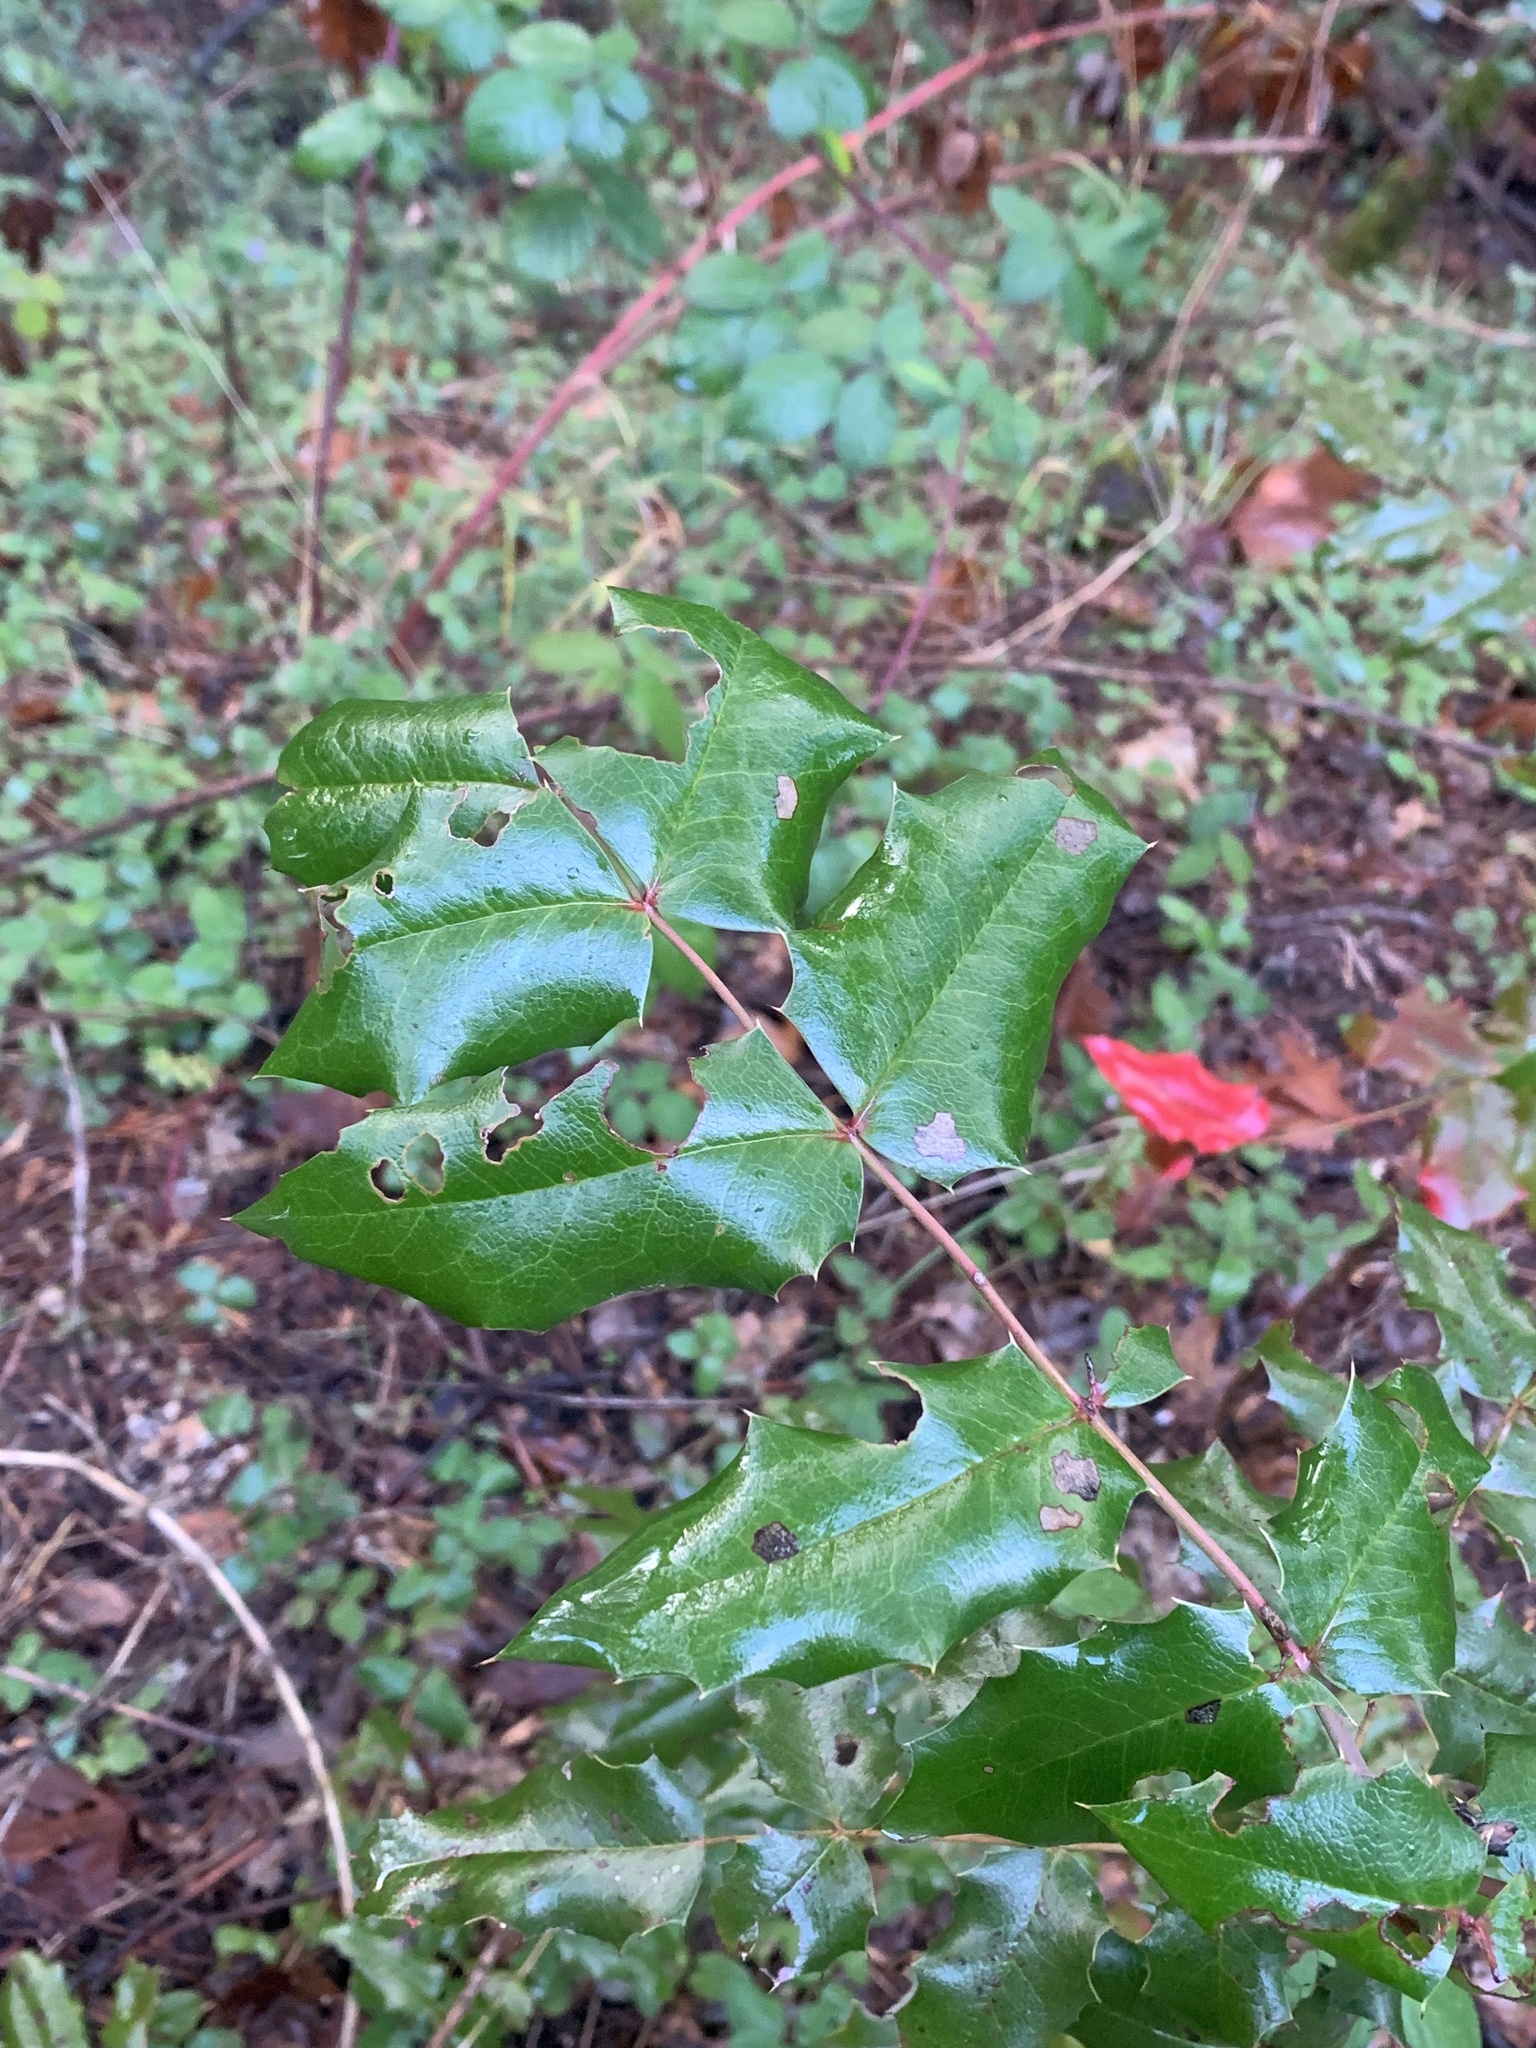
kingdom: Plantae
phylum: Tracheophyta
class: Magnoliopsida
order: Ranunculales
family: Berberidaceae
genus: Mahonia
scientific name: Mahonia aquifolium
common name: Oregon-grape
